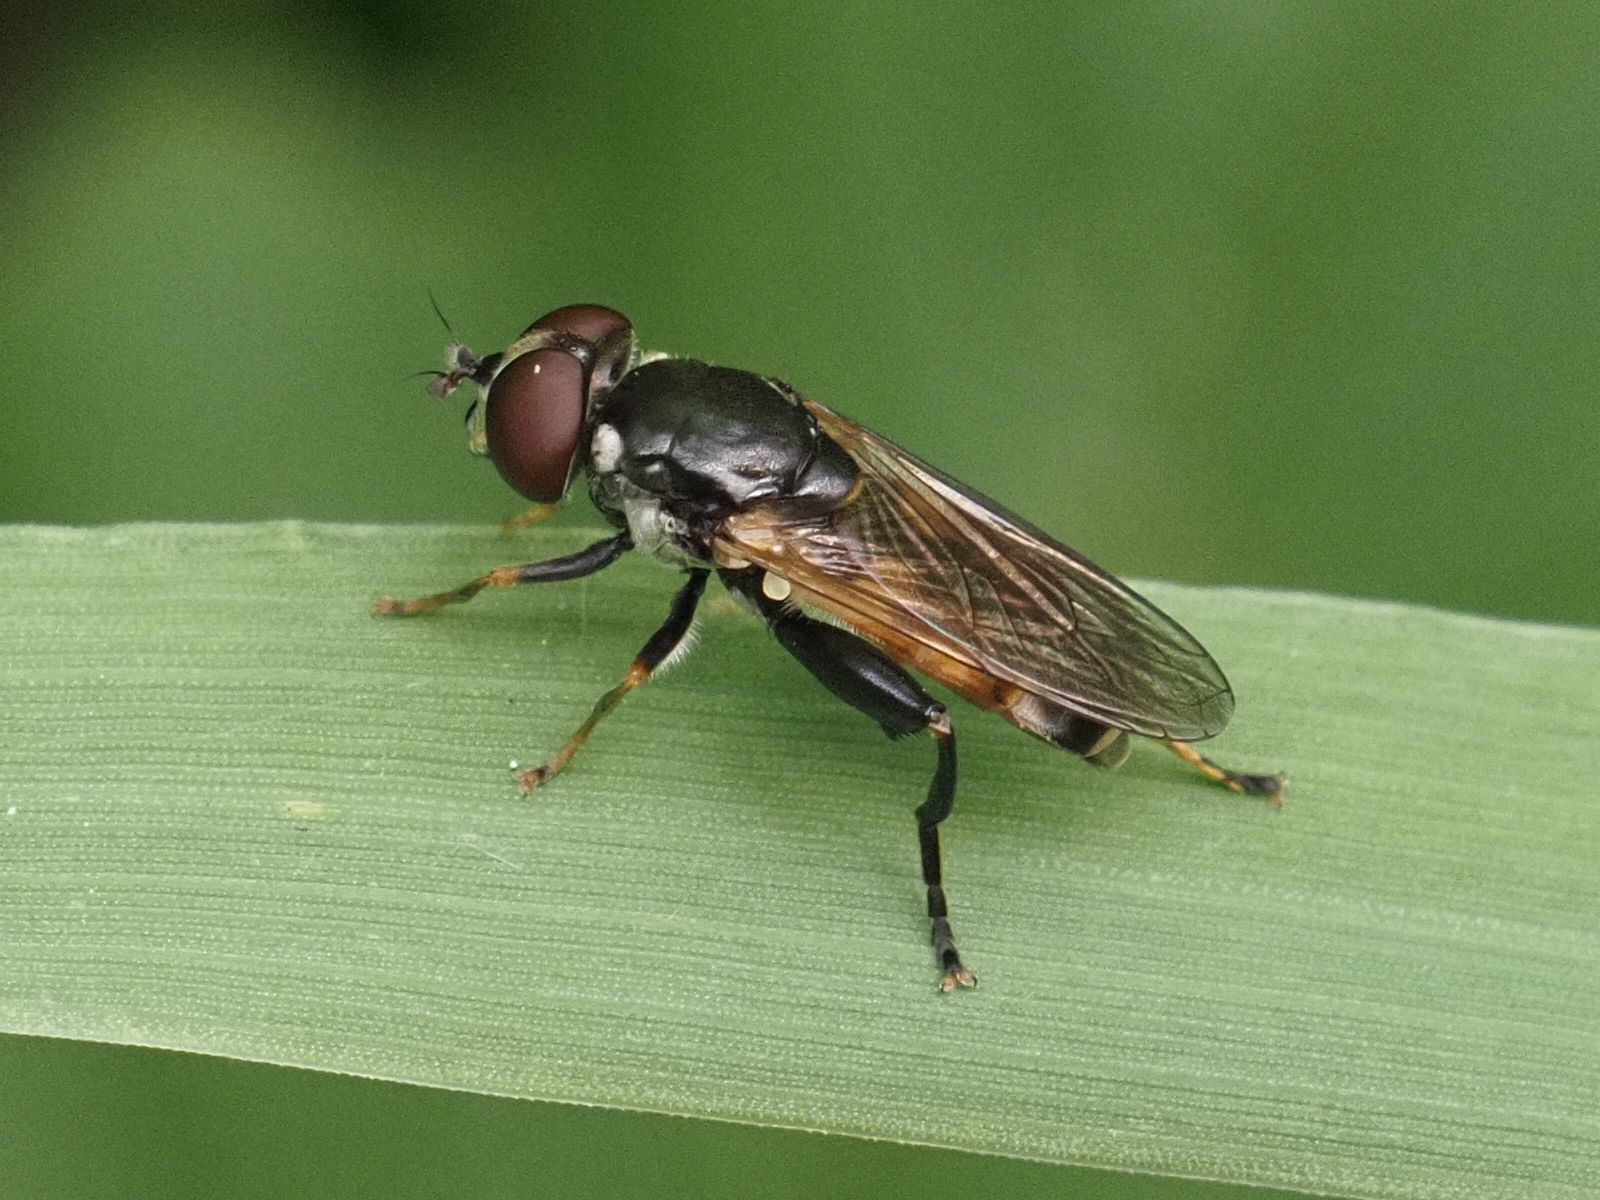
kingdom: Animalia
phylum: Arthropoda
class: Insecta
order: Diptera
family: Syrphidae
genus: Tropidia
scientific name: Tropidia scita
